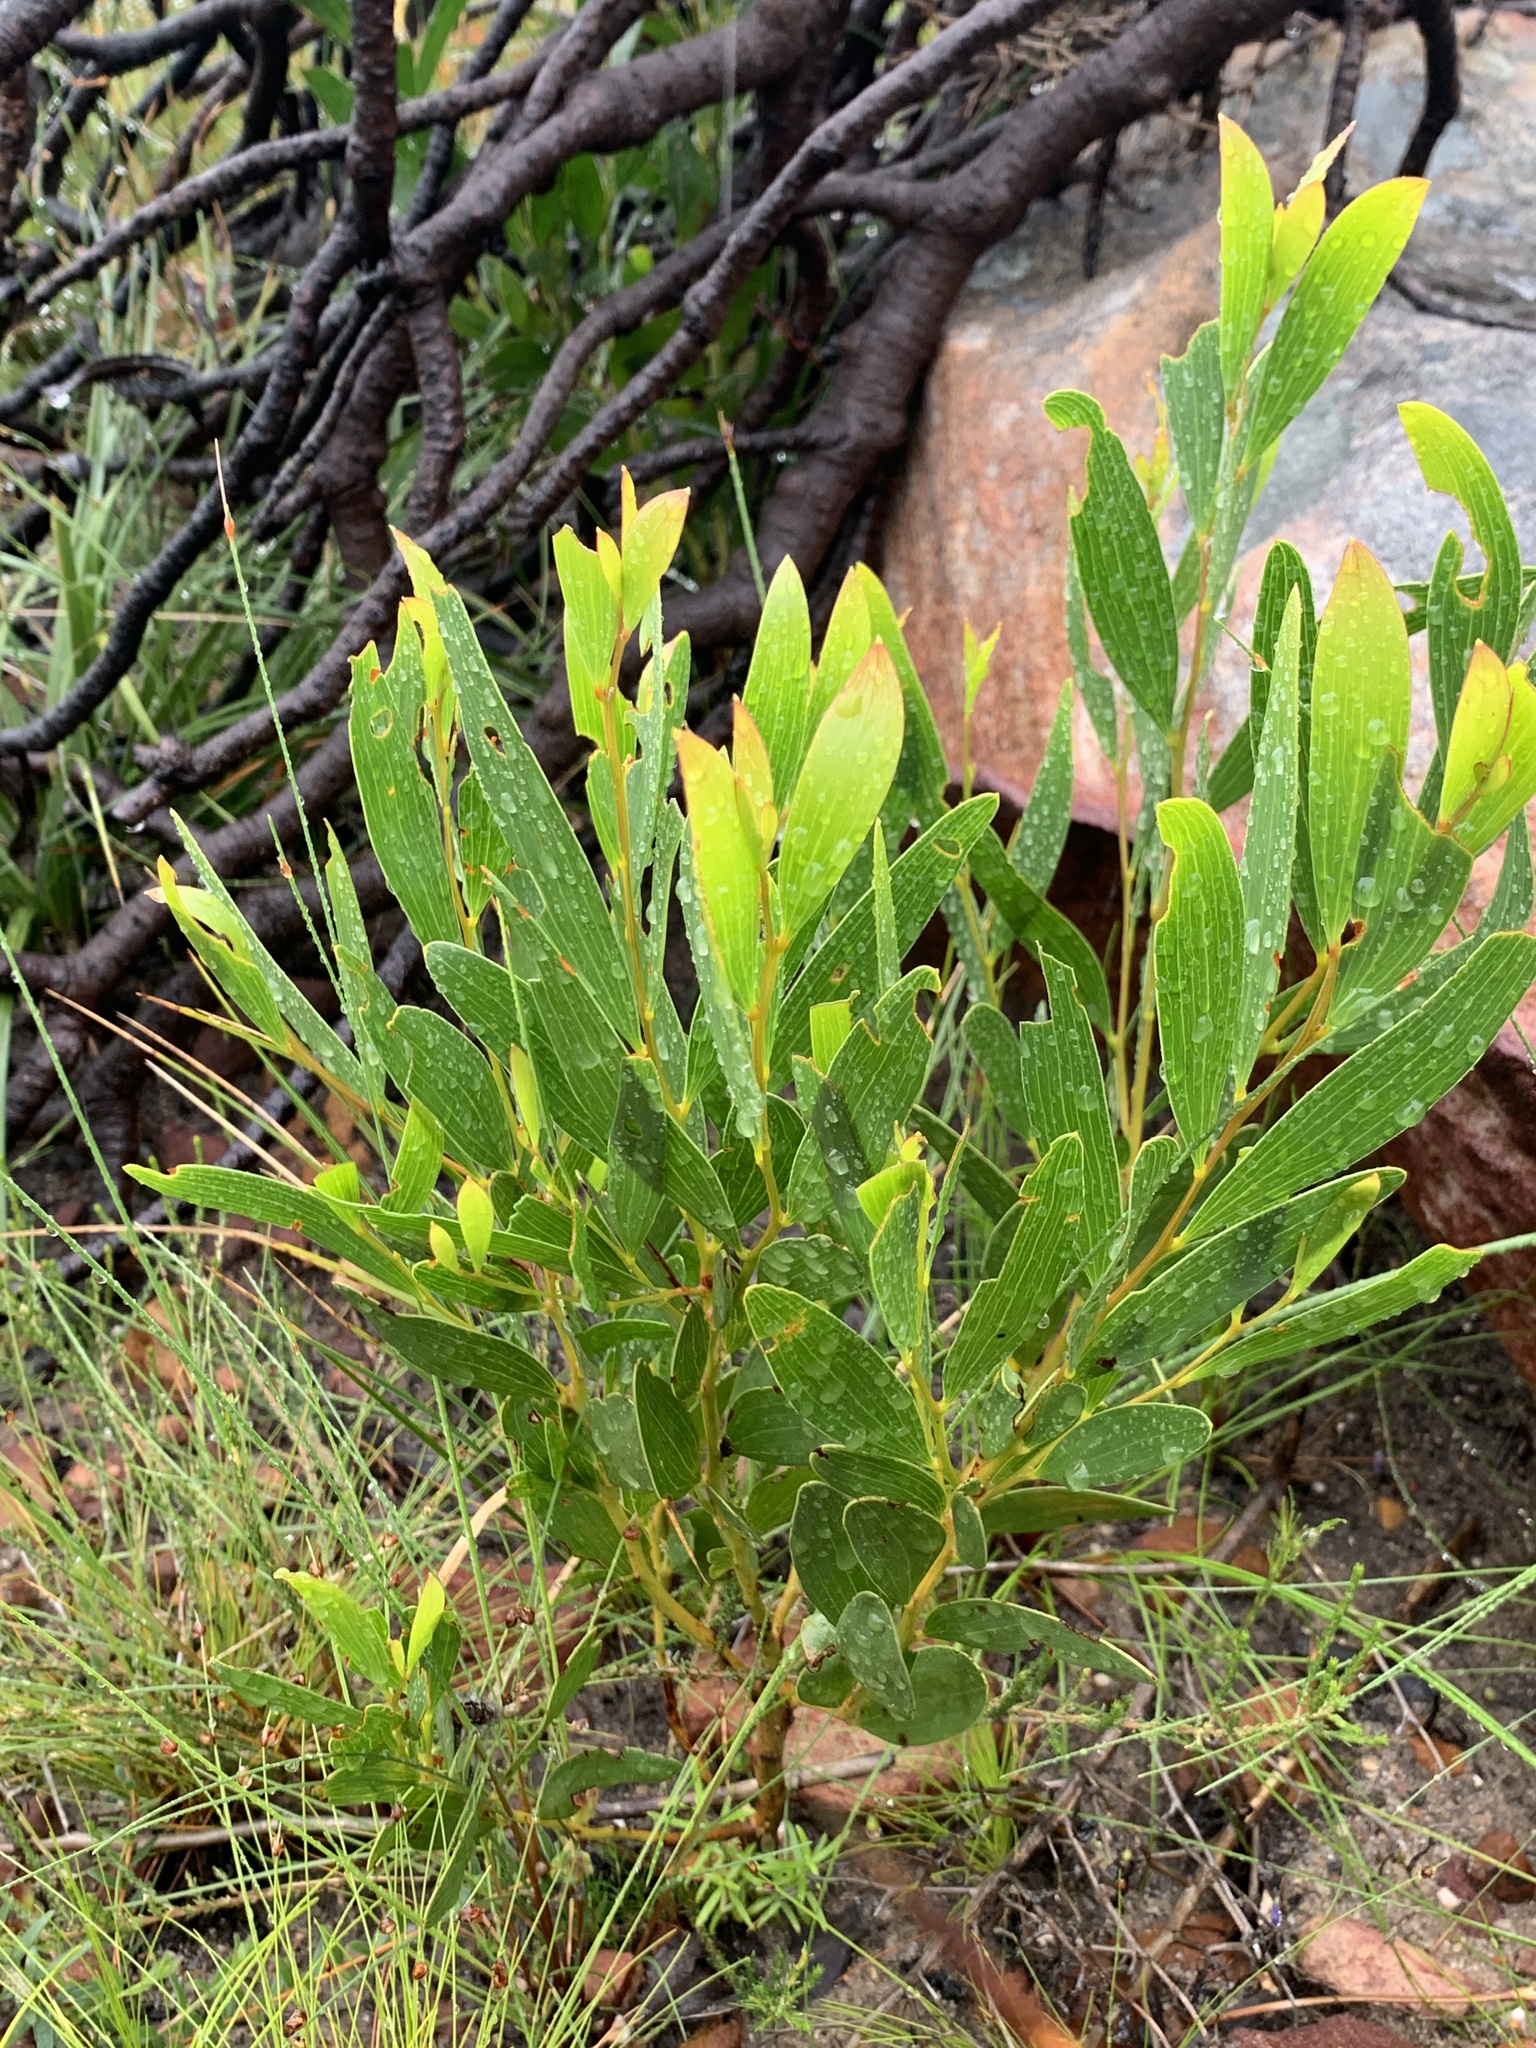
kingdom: Plantae
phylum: Tracheophyta
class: Magnoliopsida
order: Fabales
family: Fabaceae
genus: Acacia
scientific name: Acacia cyclops
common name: Coastal wattle
